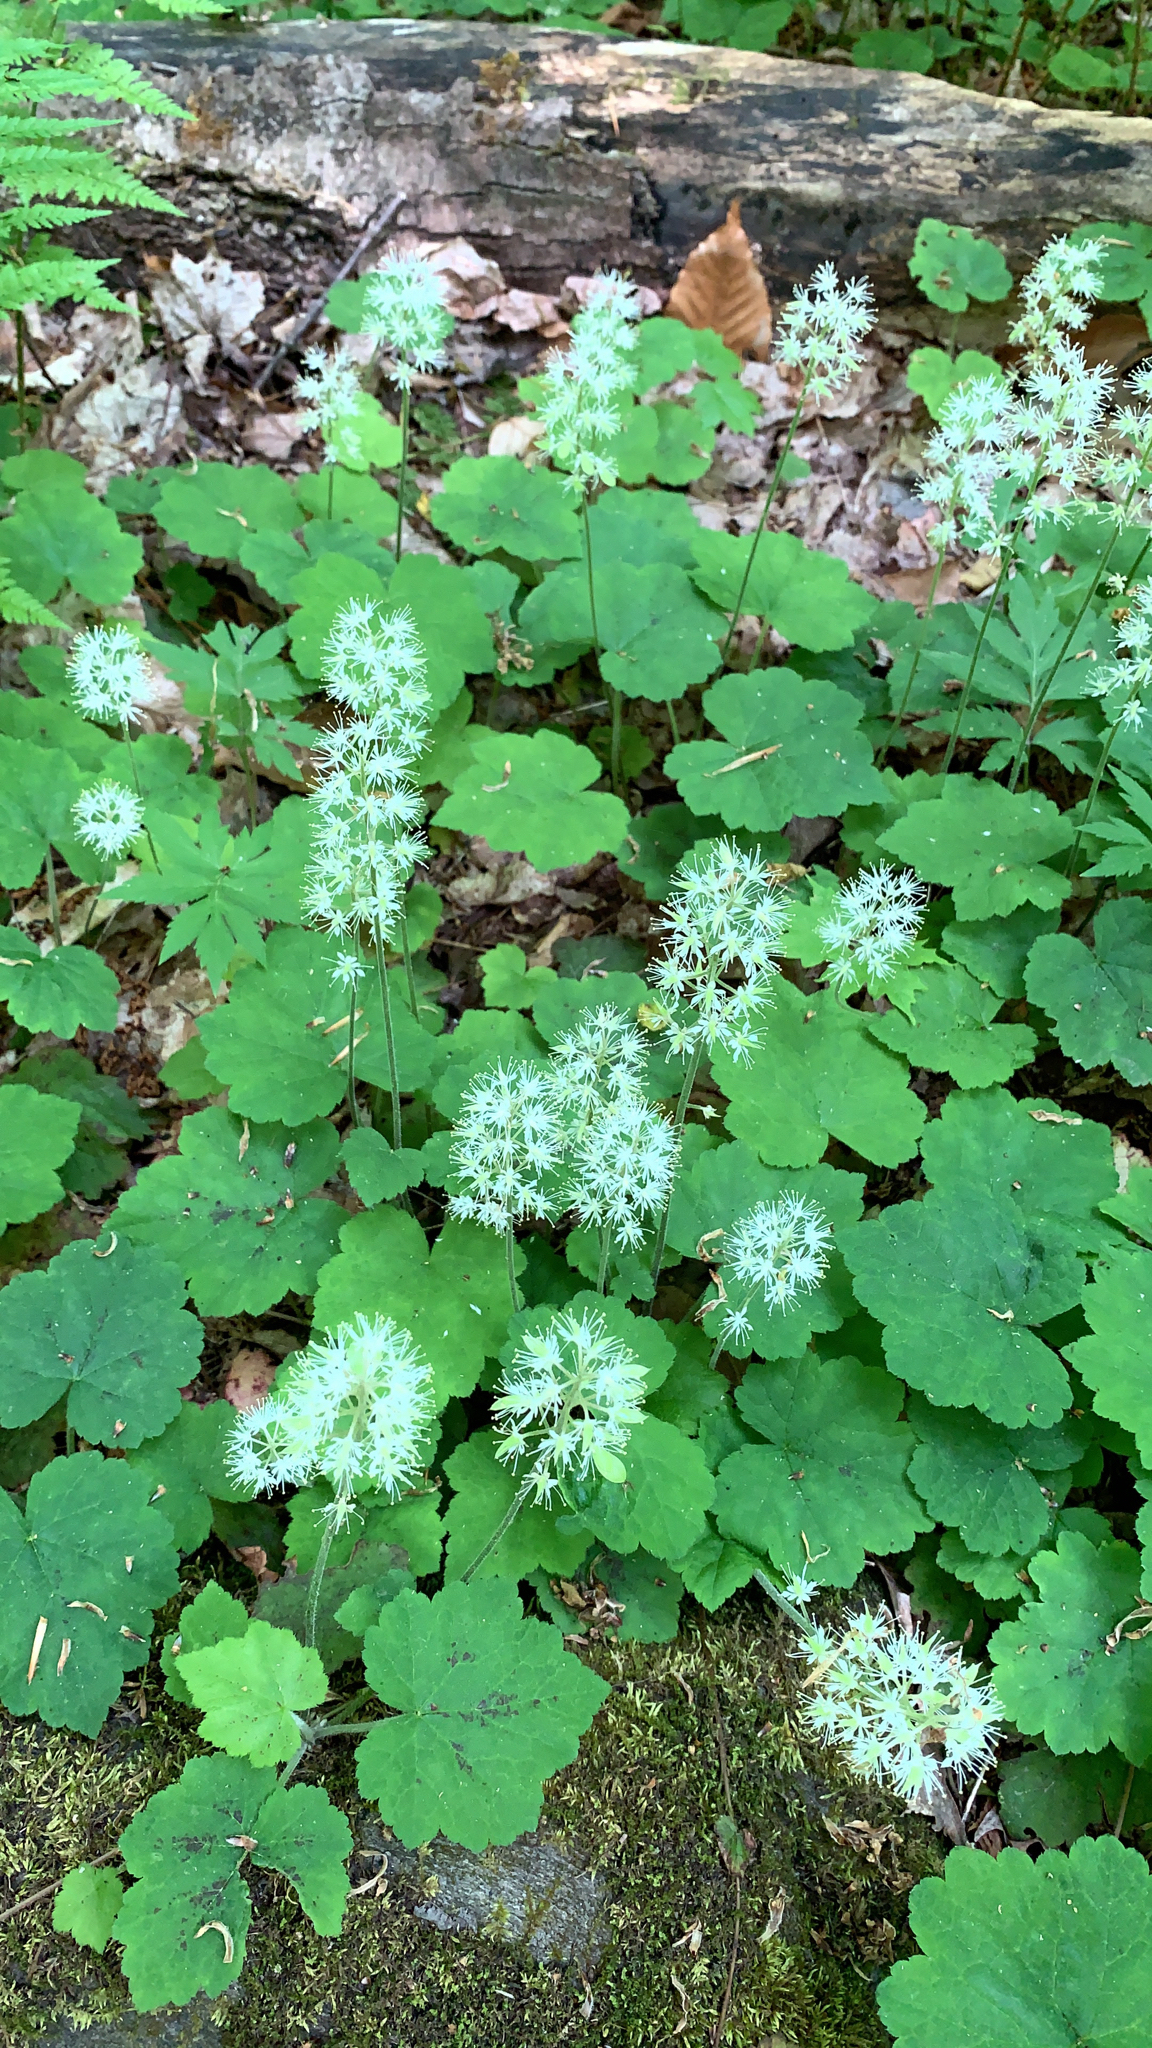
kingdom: Plantae
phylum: Tracheophyta
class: Magnoliopsida
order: Saxifragales
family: Saxifragaceae
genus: Tiarella
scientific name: Tiarella stolonifera
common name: Stoloniferous foamflower
